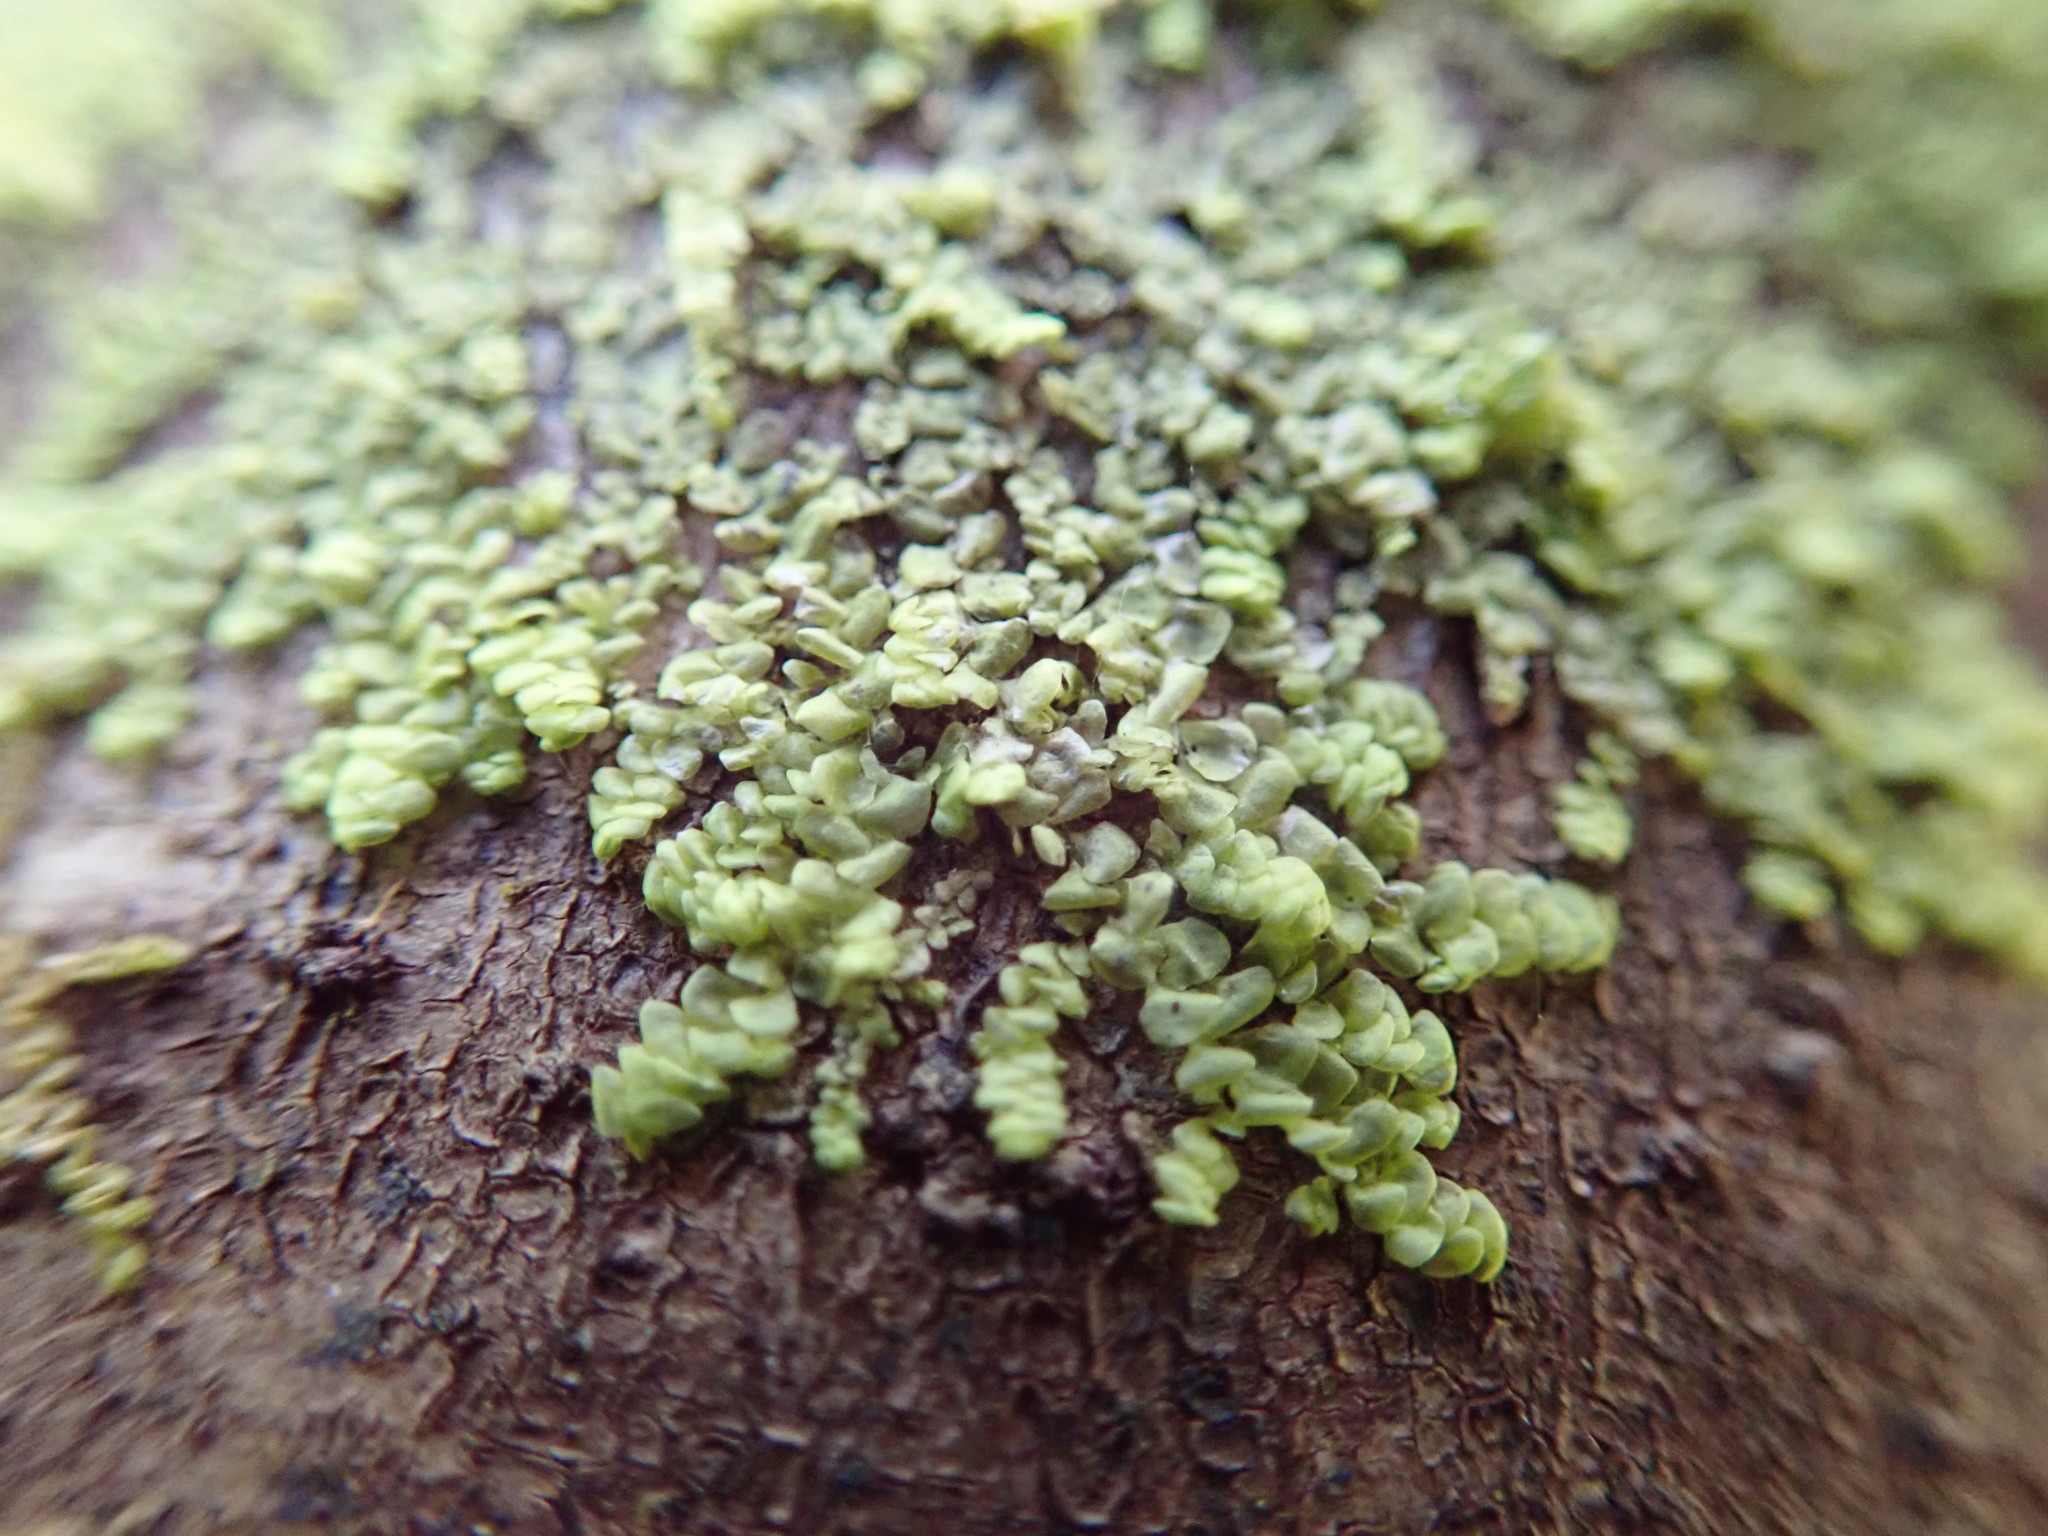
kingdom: Plantae
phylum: Marchantiophyta
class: Jungermanniopsida
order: Porellales
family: Radulaceae
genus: Radula
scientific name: Radula complanata
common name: Flat-leaved scalewort
